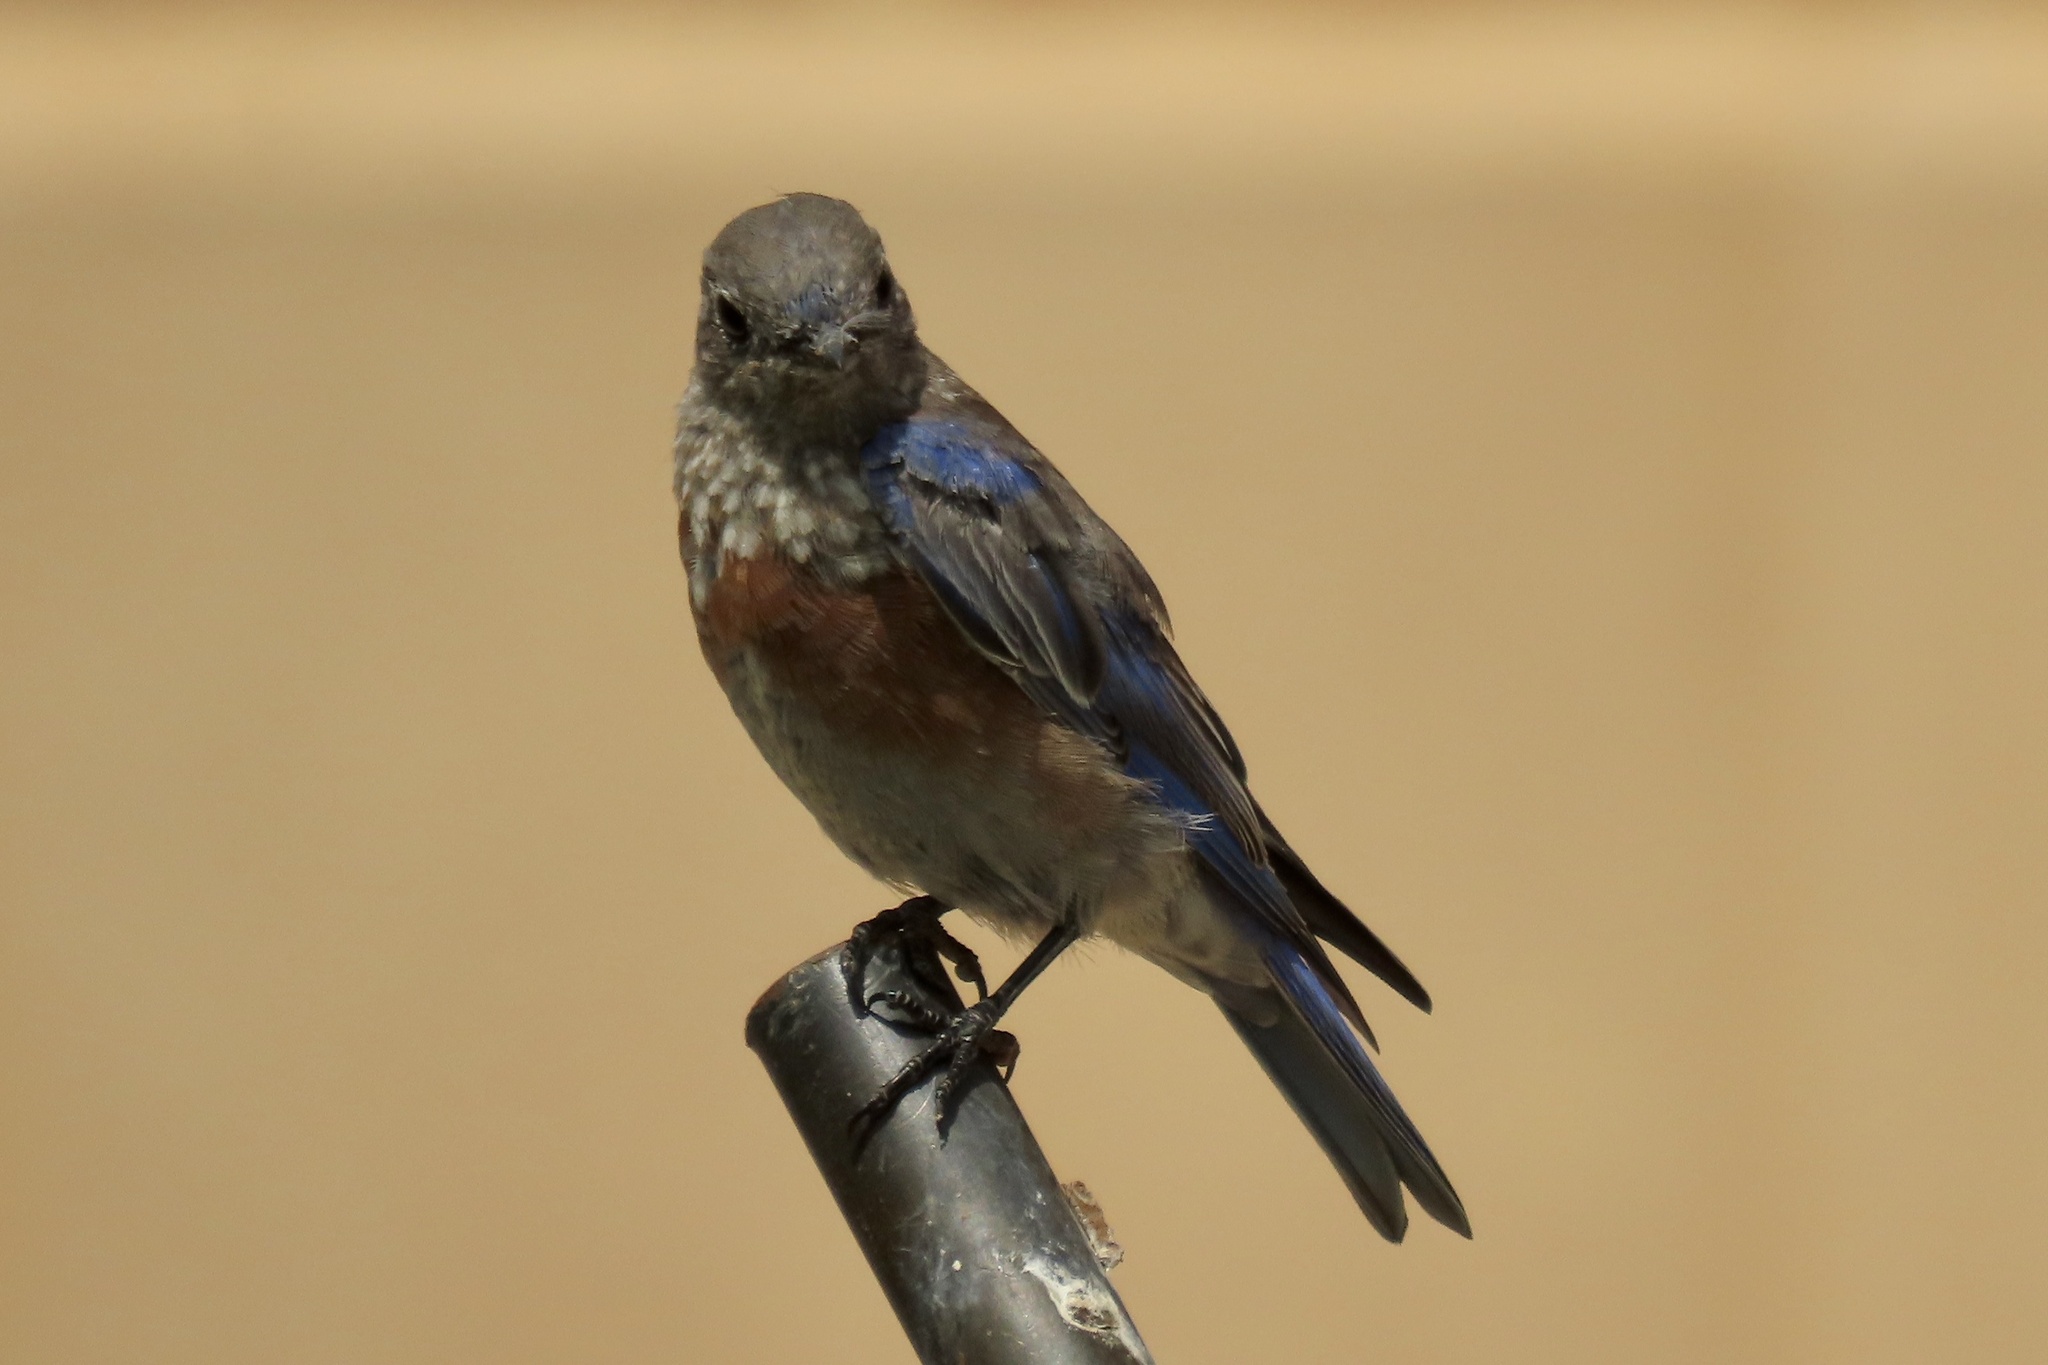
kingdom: Animalia
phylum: Chordata
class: Aves
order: Passeriformes
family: Turdidae
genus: Sialia
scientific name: Sialia mexicana
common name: Western bluebird
